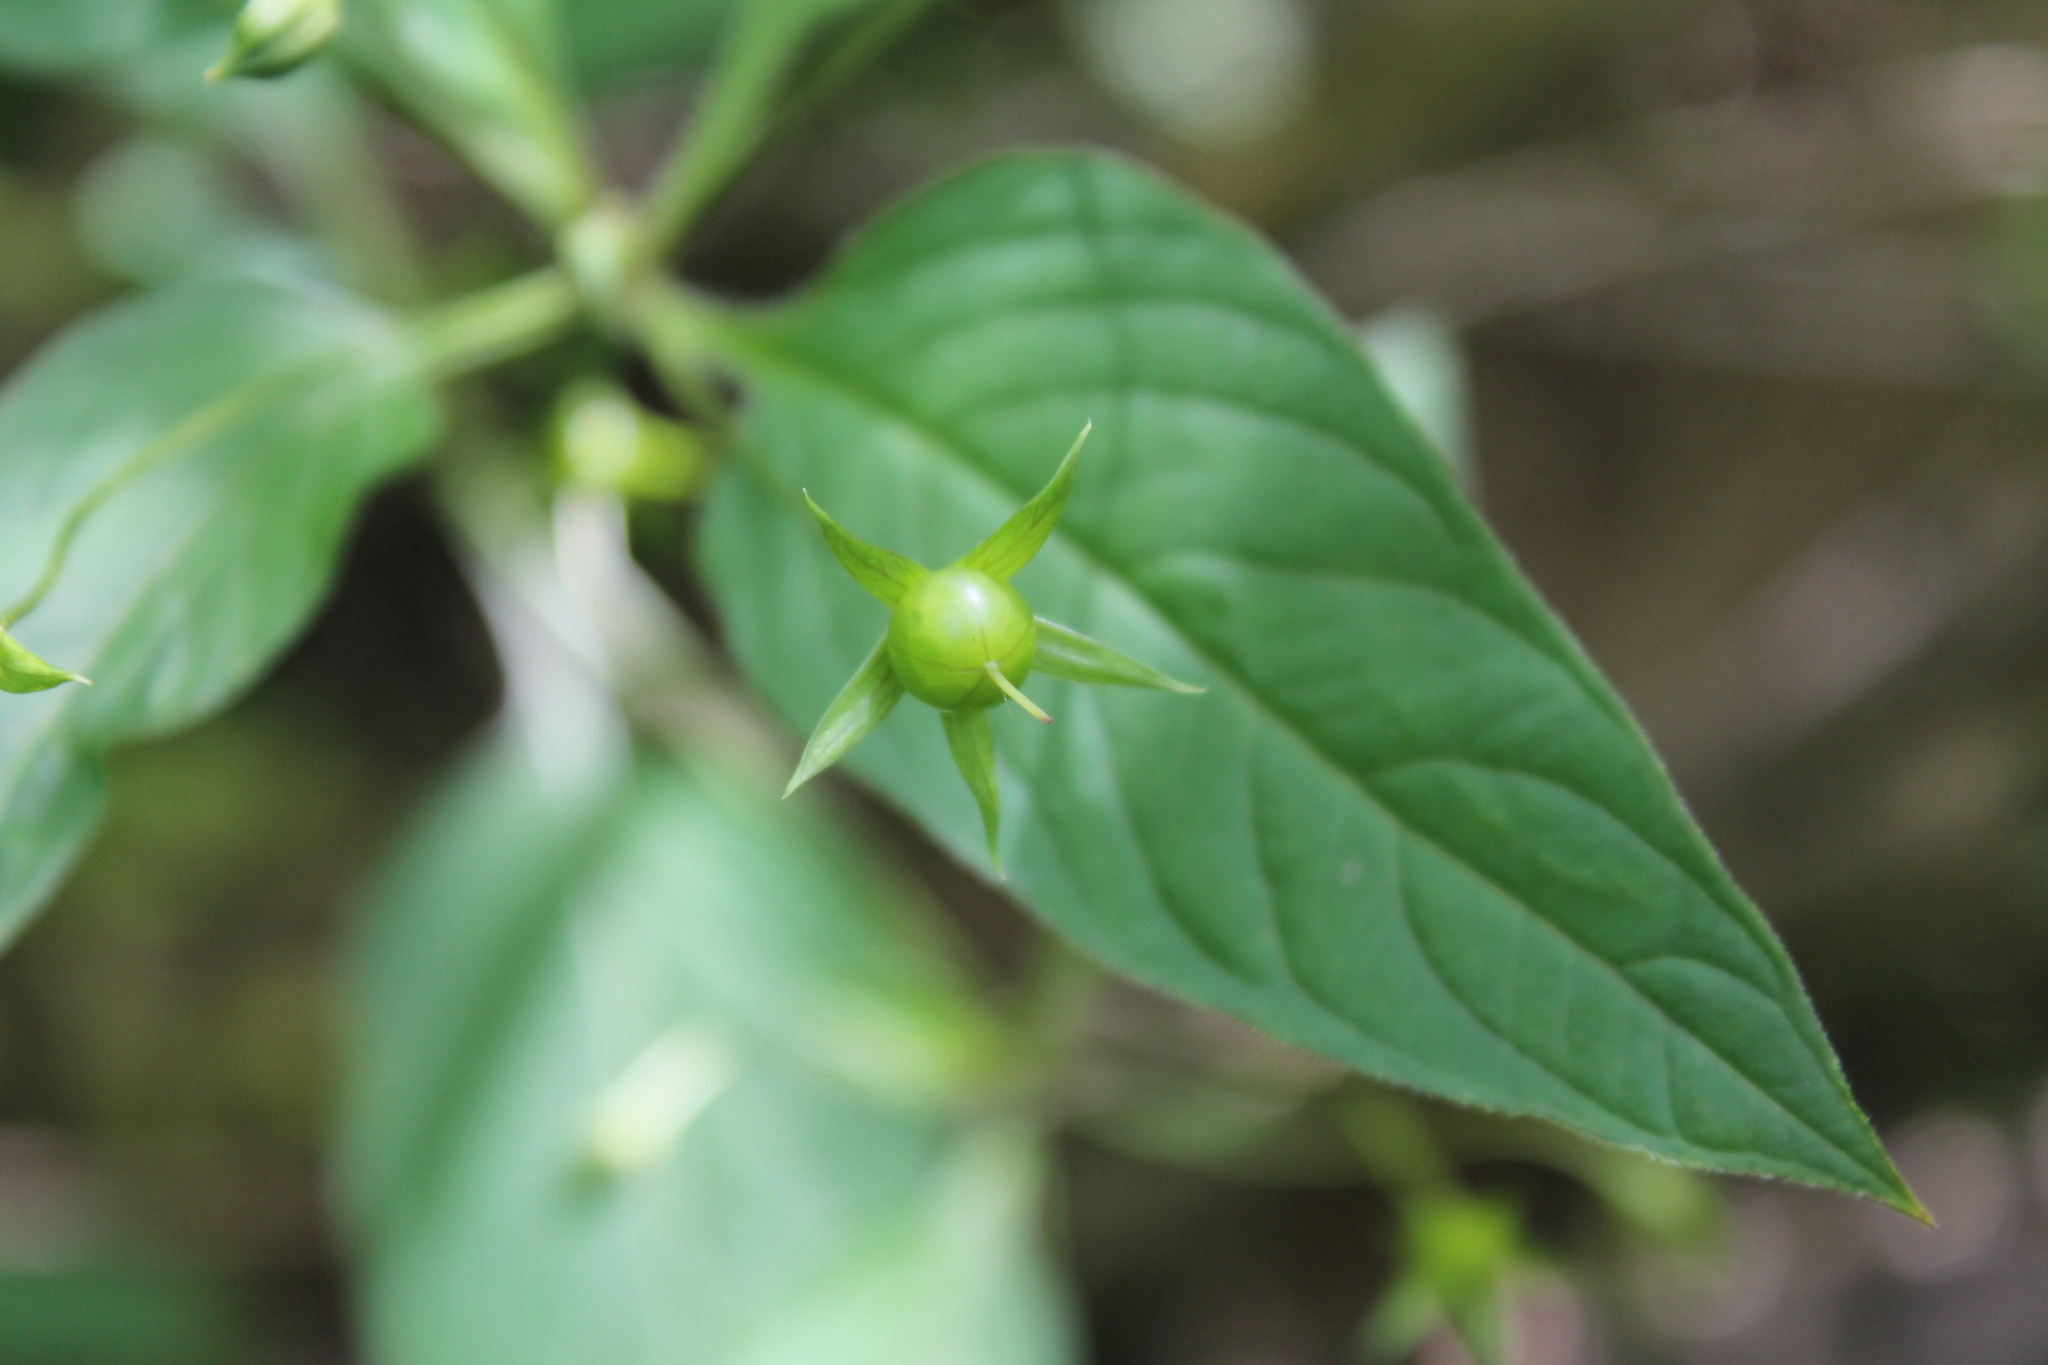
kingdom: Plantae
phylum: Tracheophyta
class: Magnoliopsida
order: Ericales
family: Primulaceae
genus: Lysimachia
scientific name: Lysimachia ciliata
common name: Fringed loosestrife
